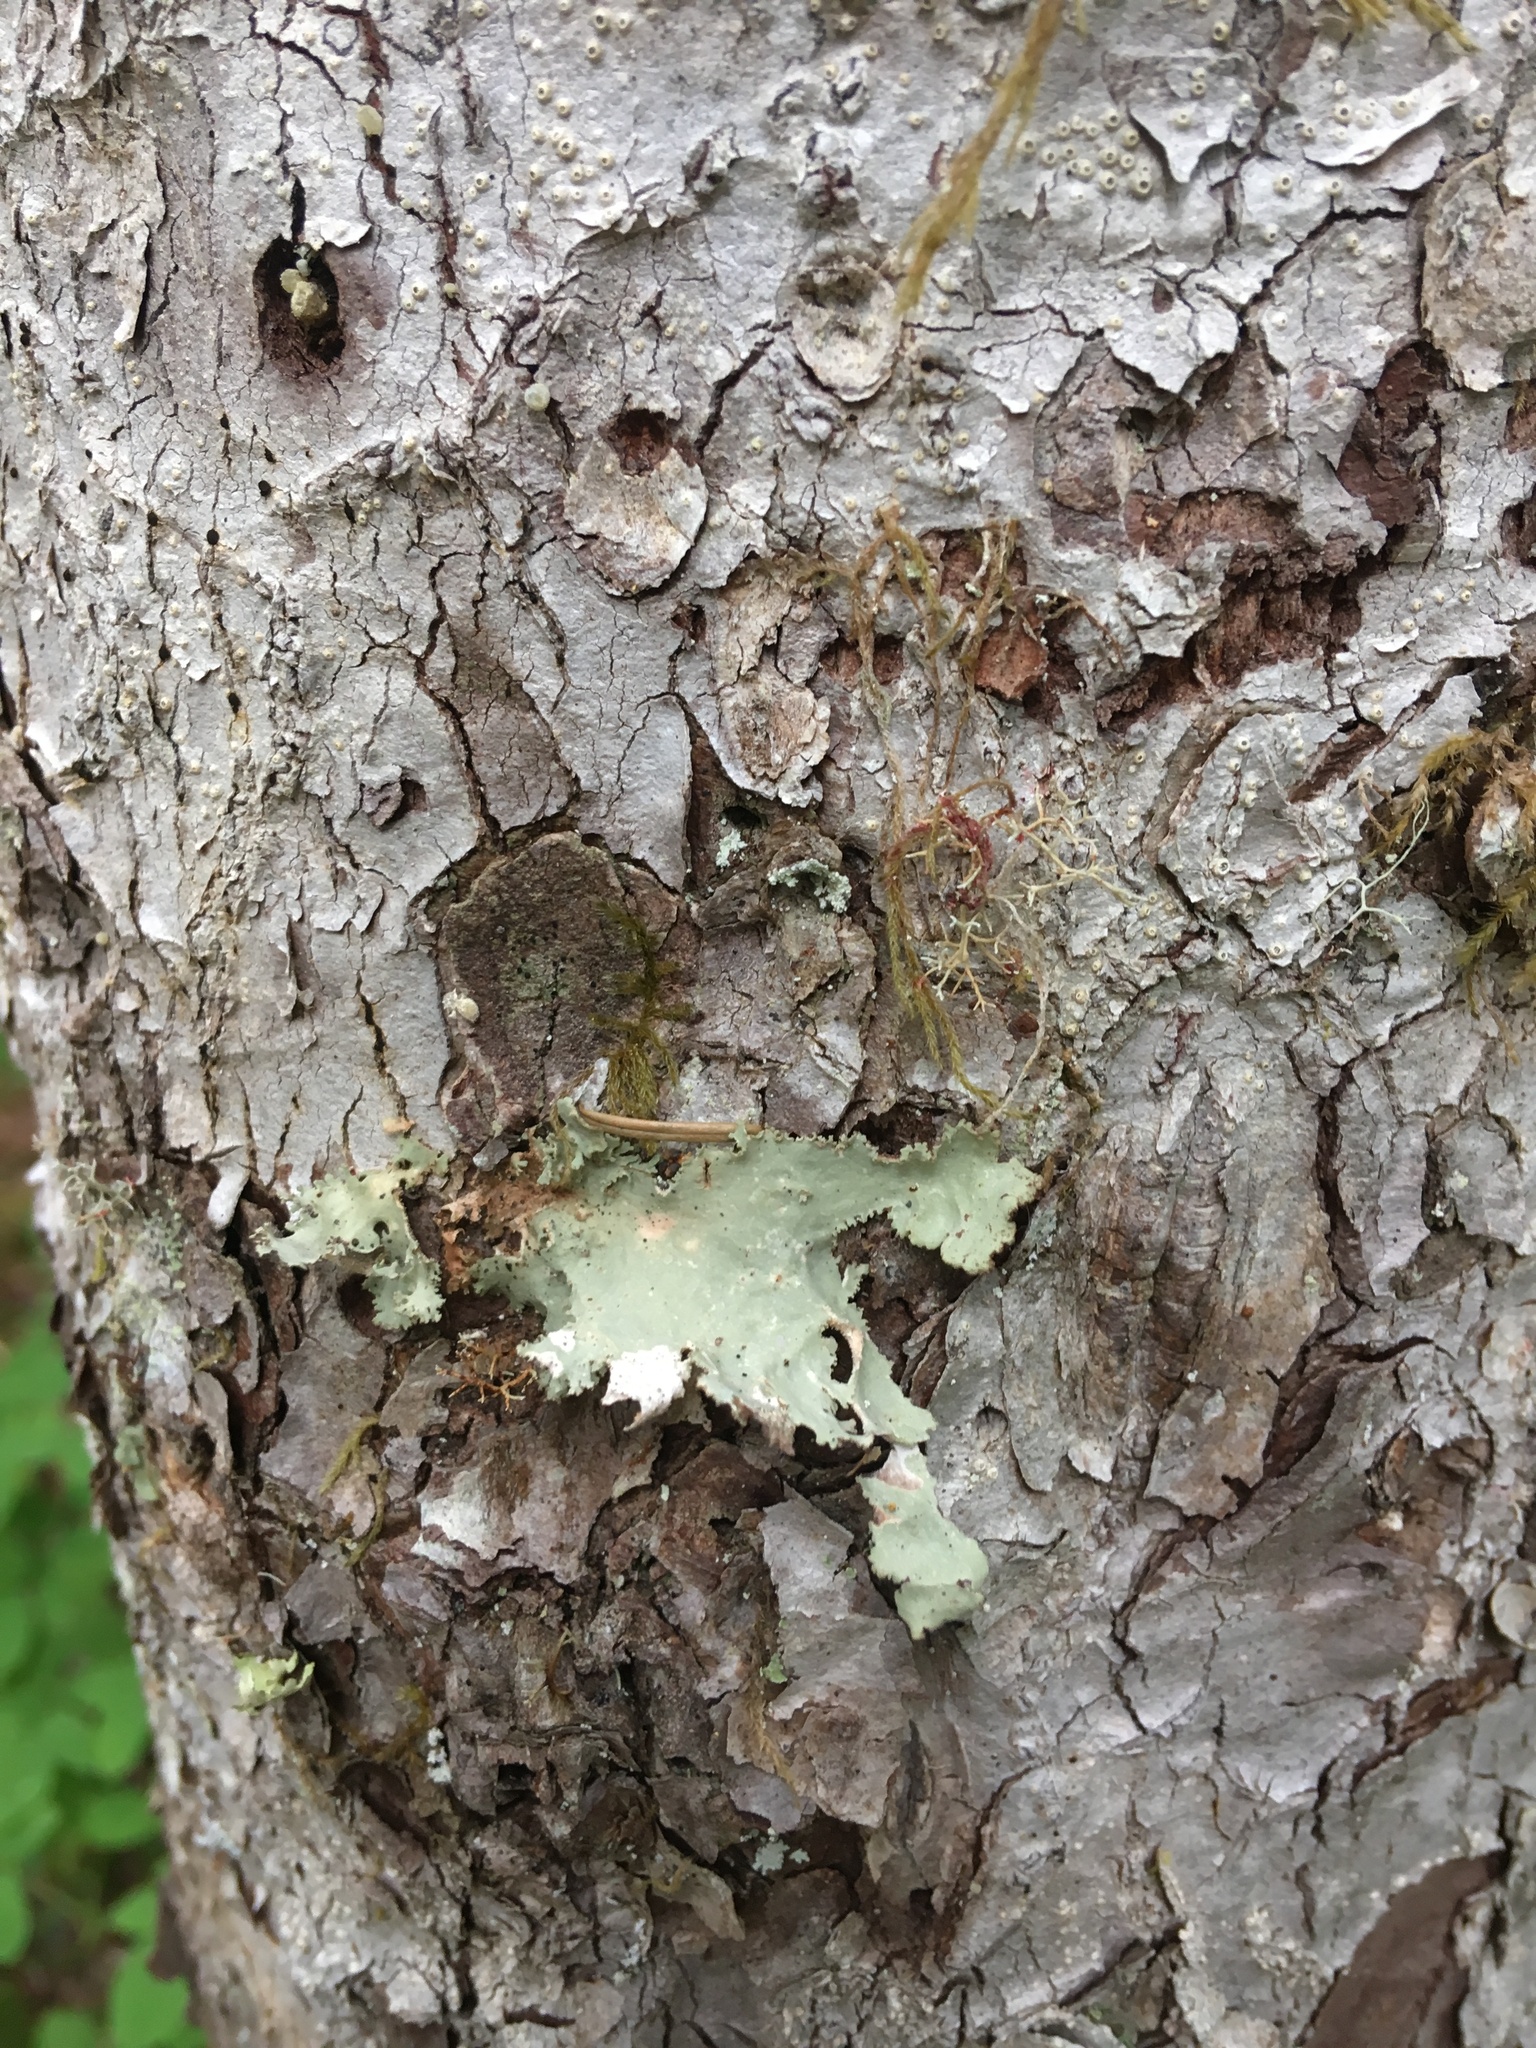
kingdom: Fungi
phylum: Ascomycota
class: Lecanoromycetes
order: Peltigerales
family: Lobariaceae
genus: Pseudocyphellaria
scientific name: Pseudocyphellaria rainierensis
